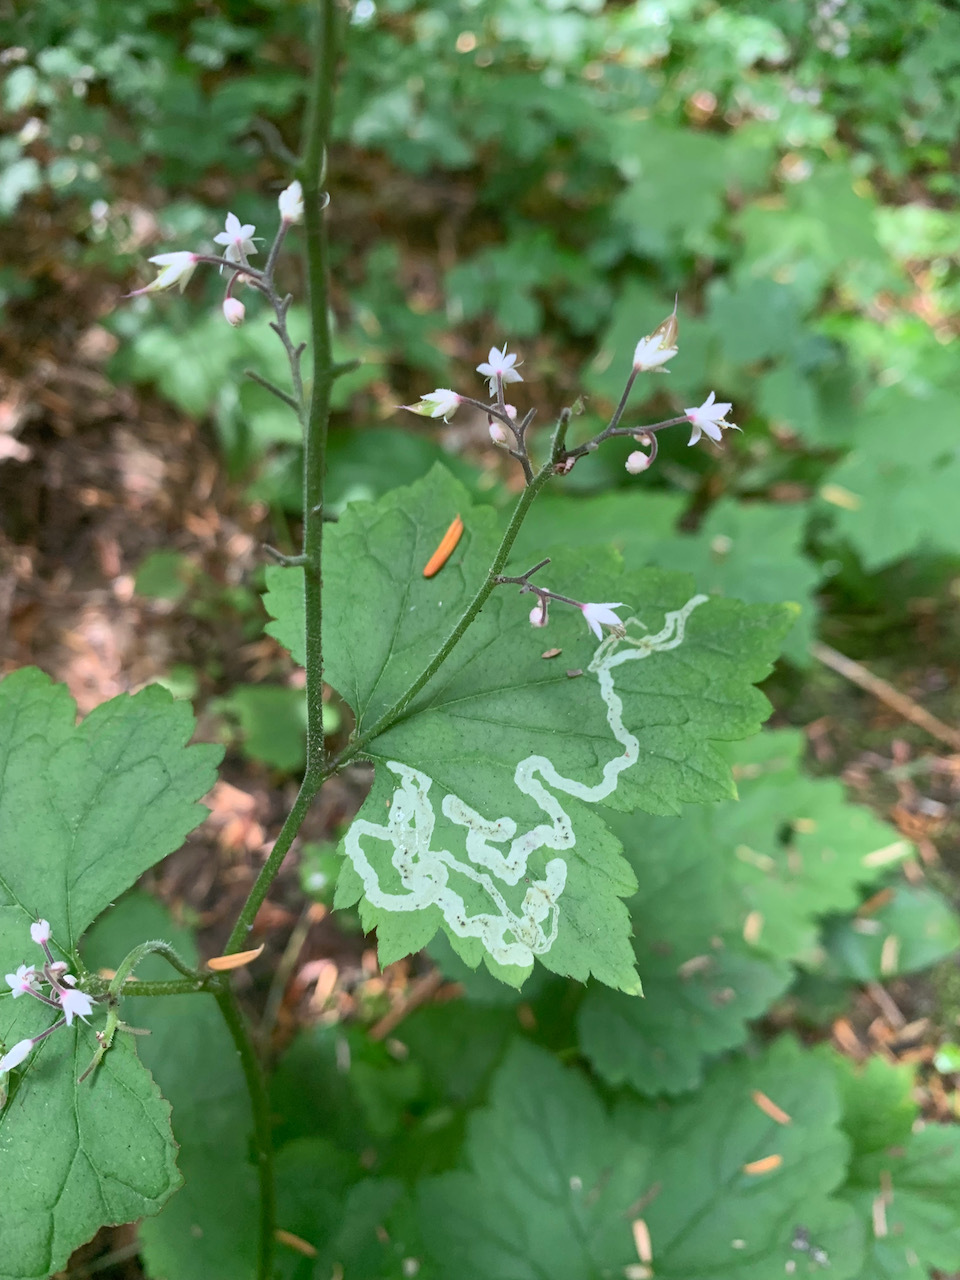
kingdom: Animalia
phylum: Arthropoda
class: Insecta
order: Diptera
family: Agromyzidae
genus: Phytomyza
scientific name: Phytomyza tiarellae
